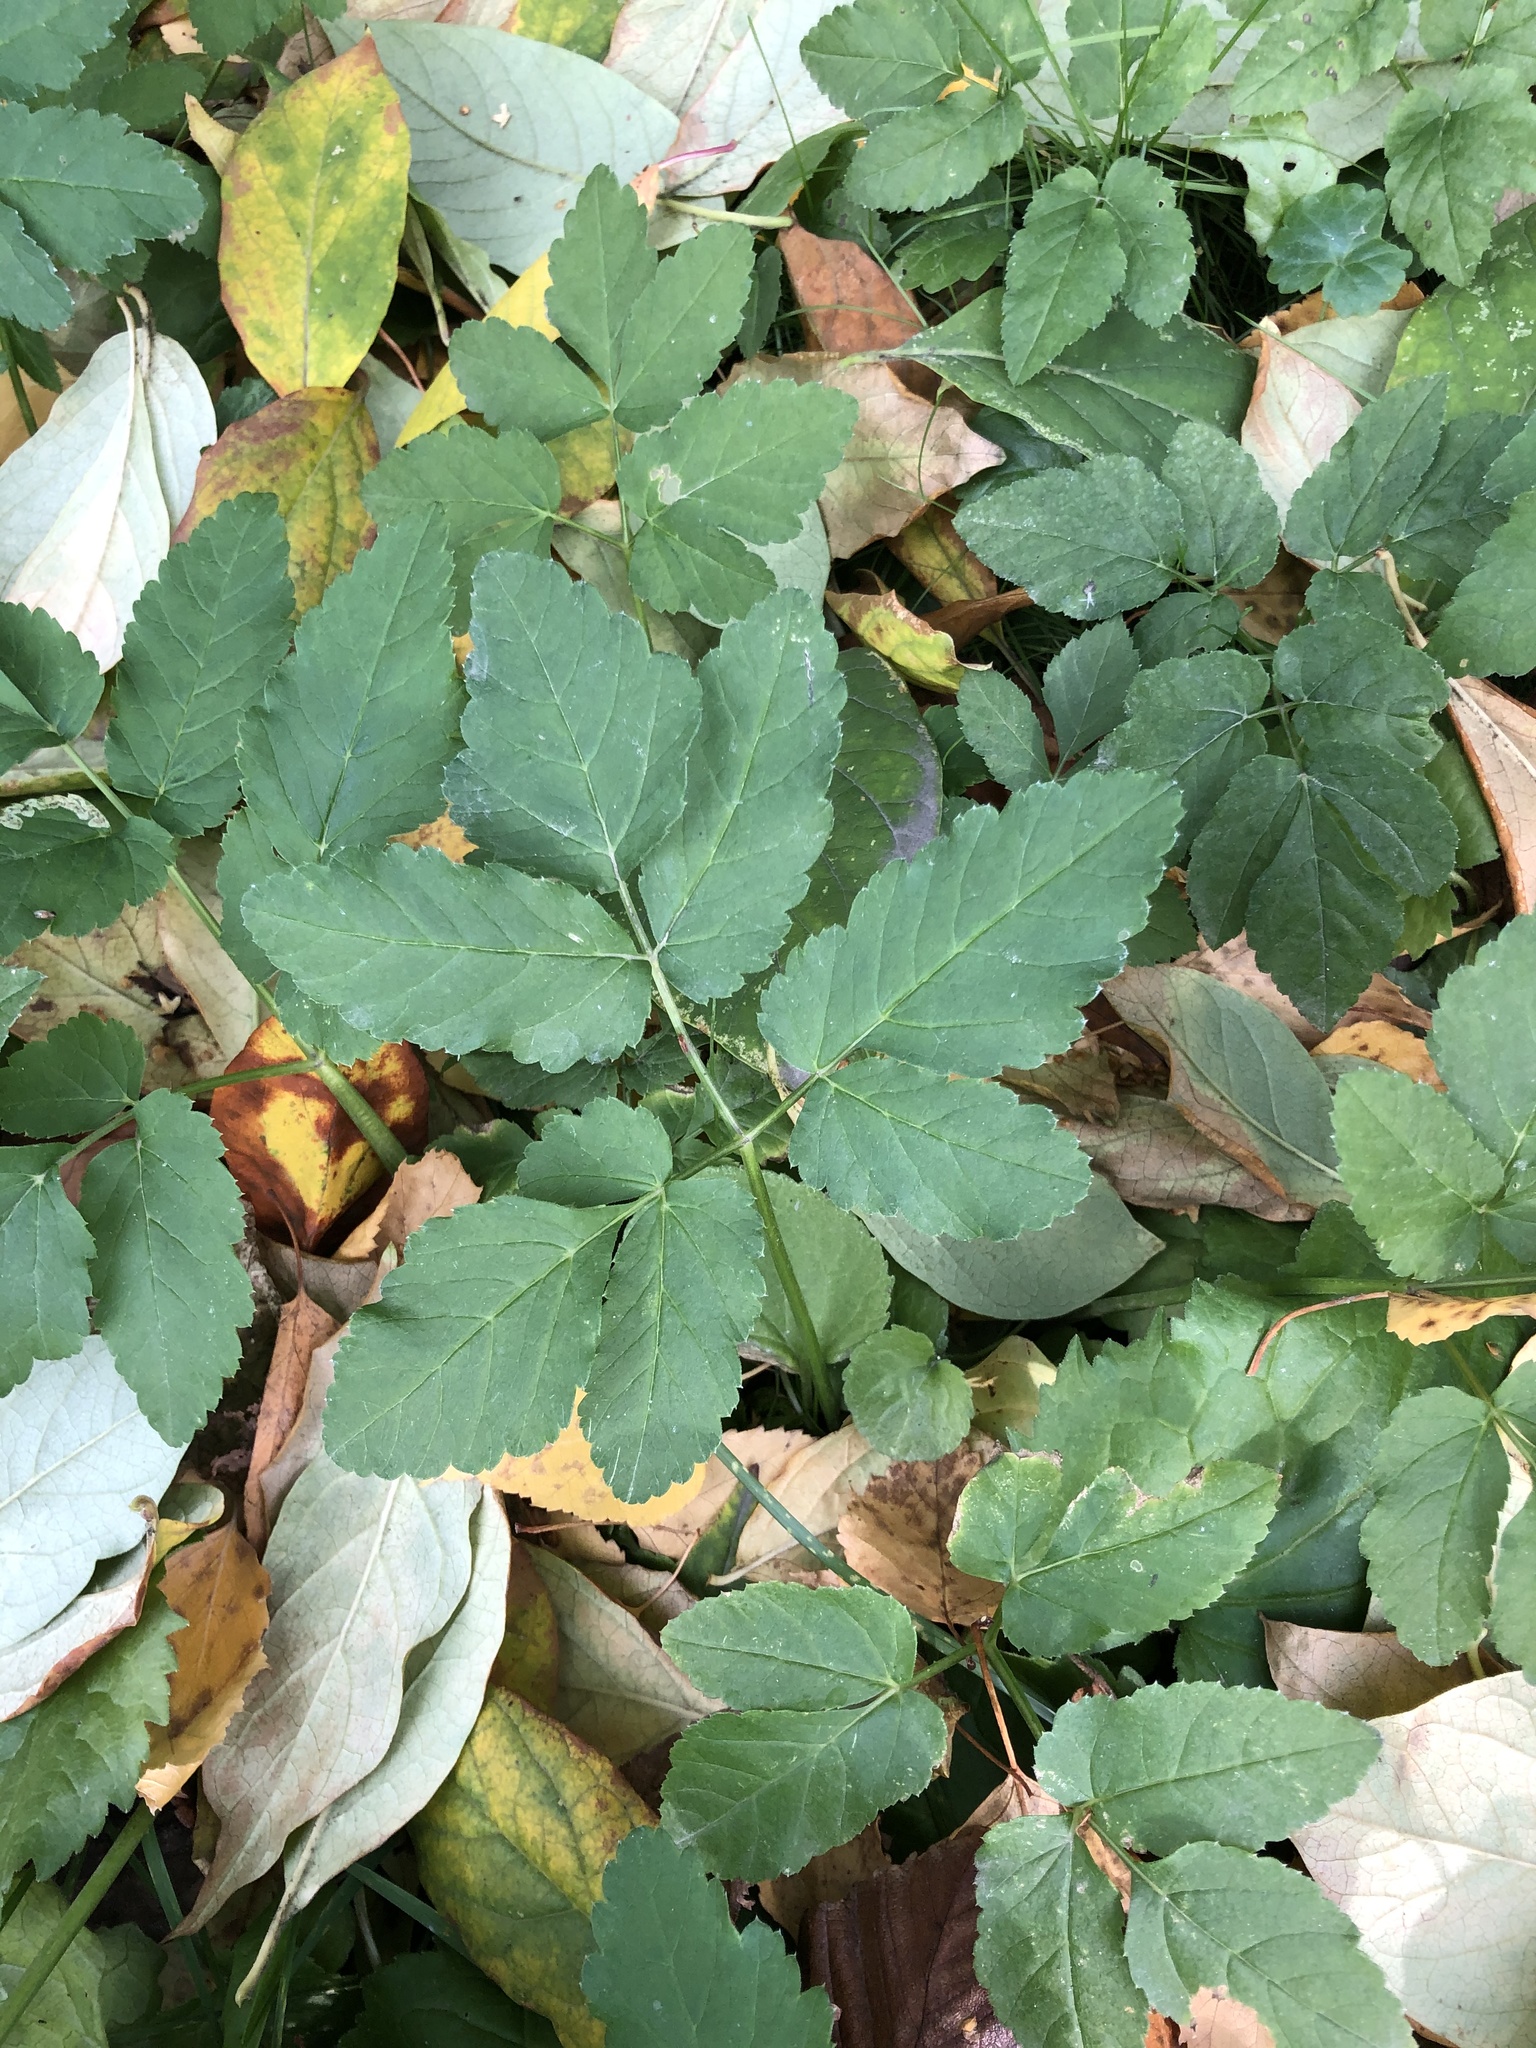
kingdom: Plantae
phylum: Tracheophyta
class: Magnoliopsida
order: Apiales
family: Apiaceae
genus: Aegopodium
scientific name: Aegopodium podagraria
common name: Ground-elder
